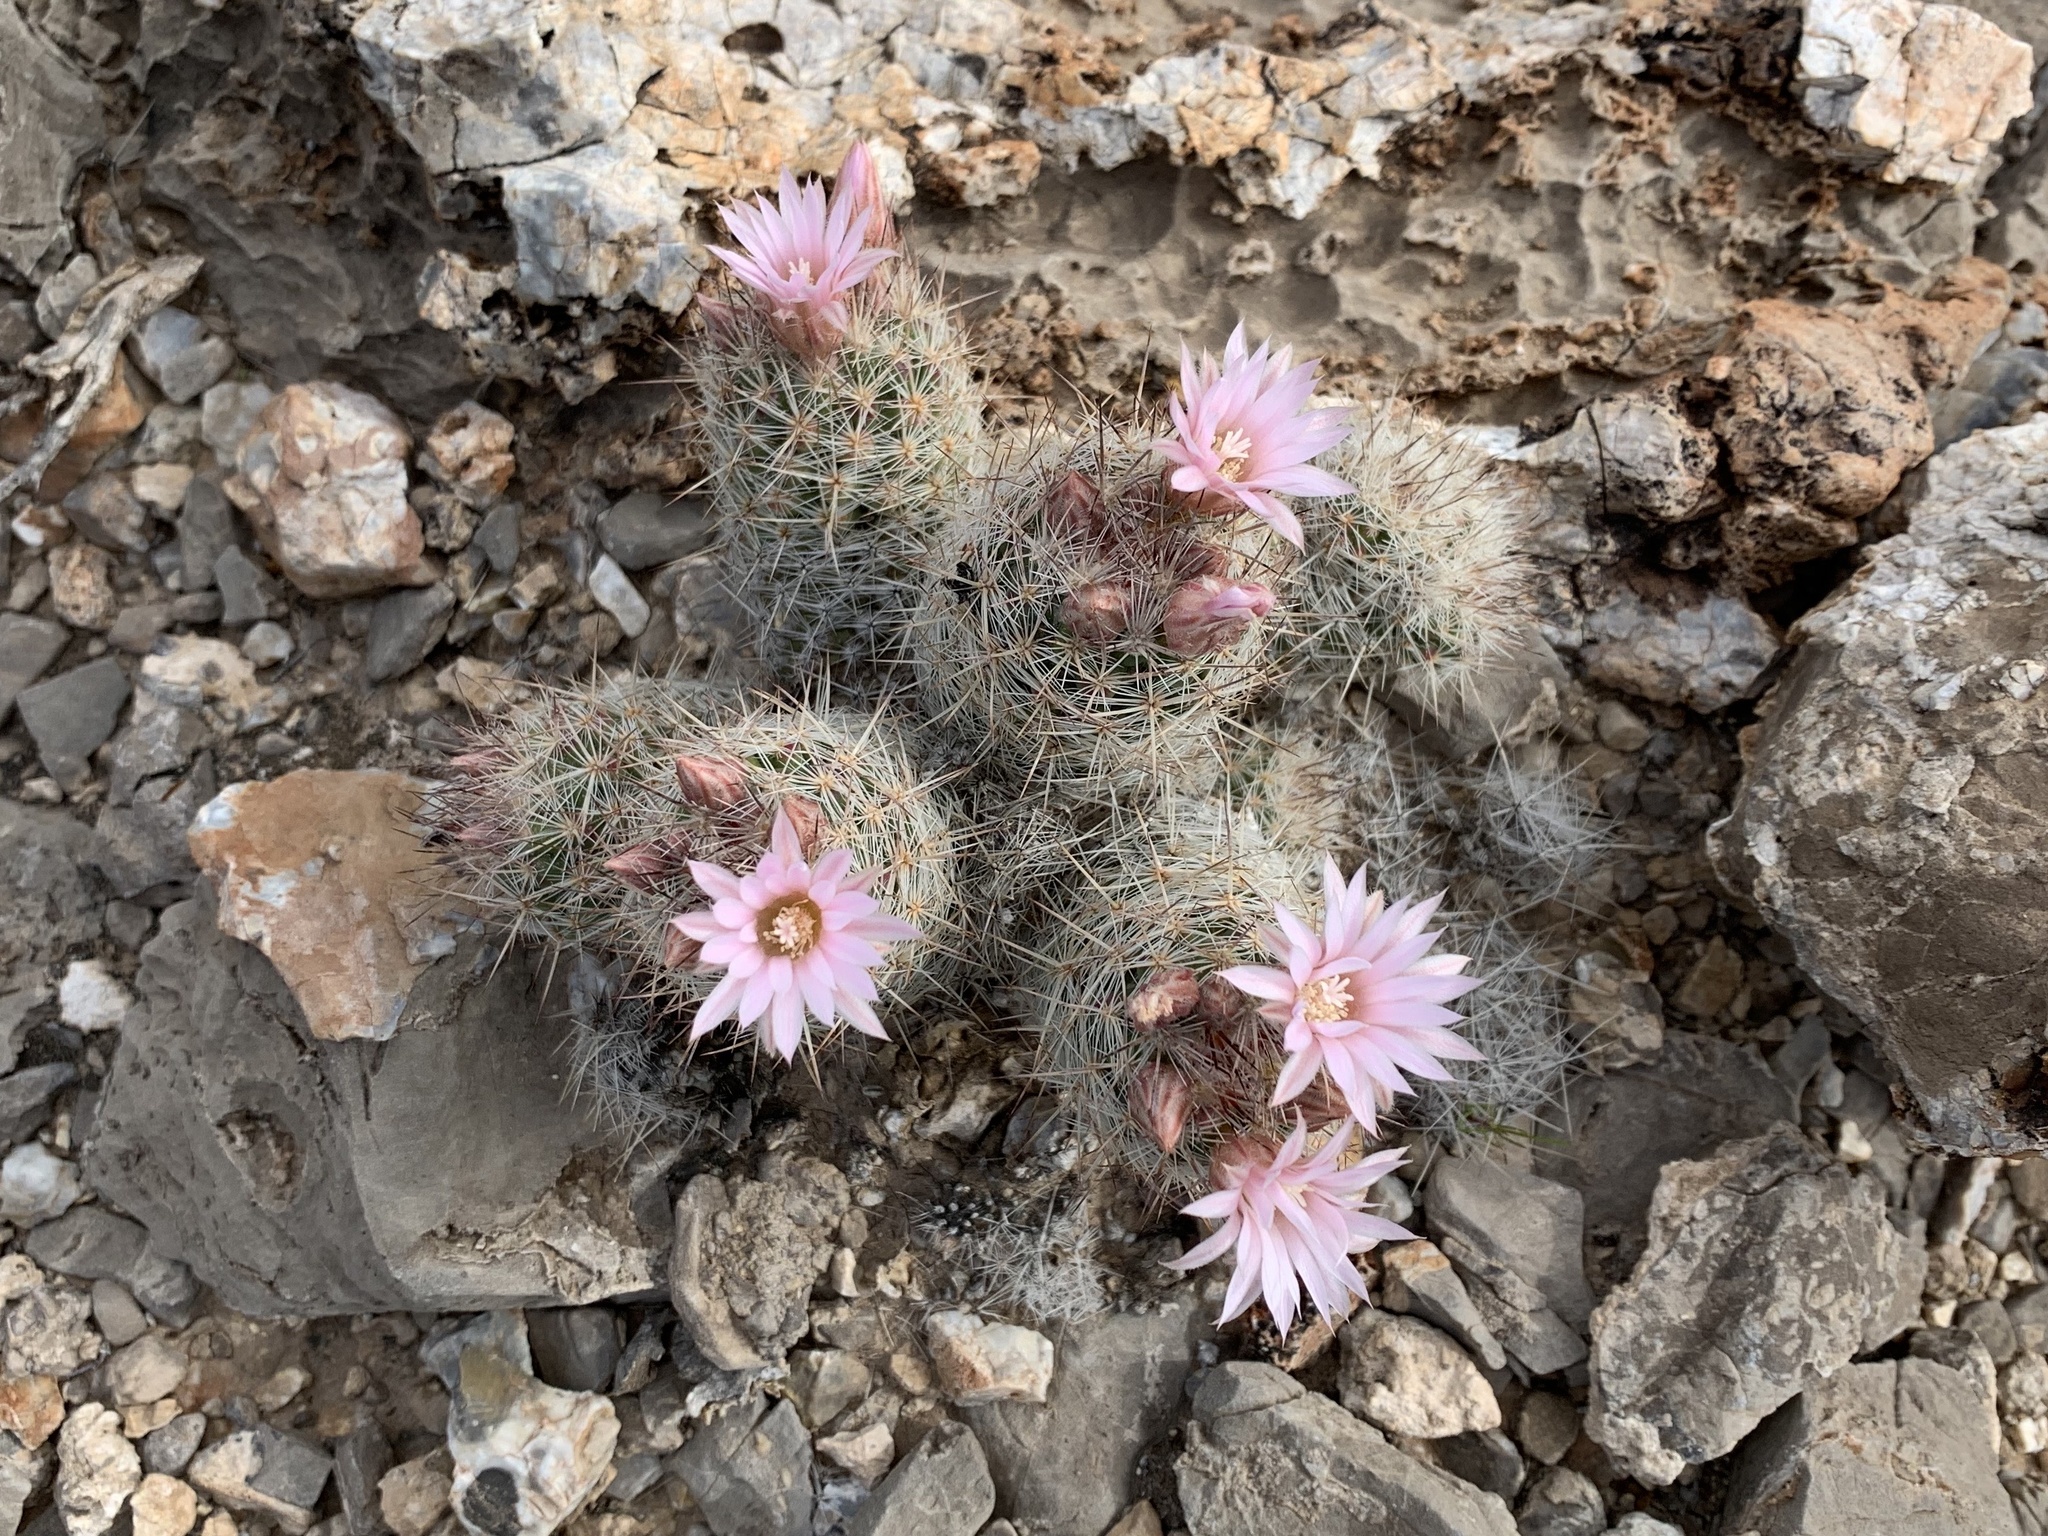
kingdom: Plantae
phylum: Tracheophyta
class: Magnoliopsida
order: Caryophyllales
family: Cactaceae
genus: Pelecyphora
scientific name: Pelecyphora tuberculosa
